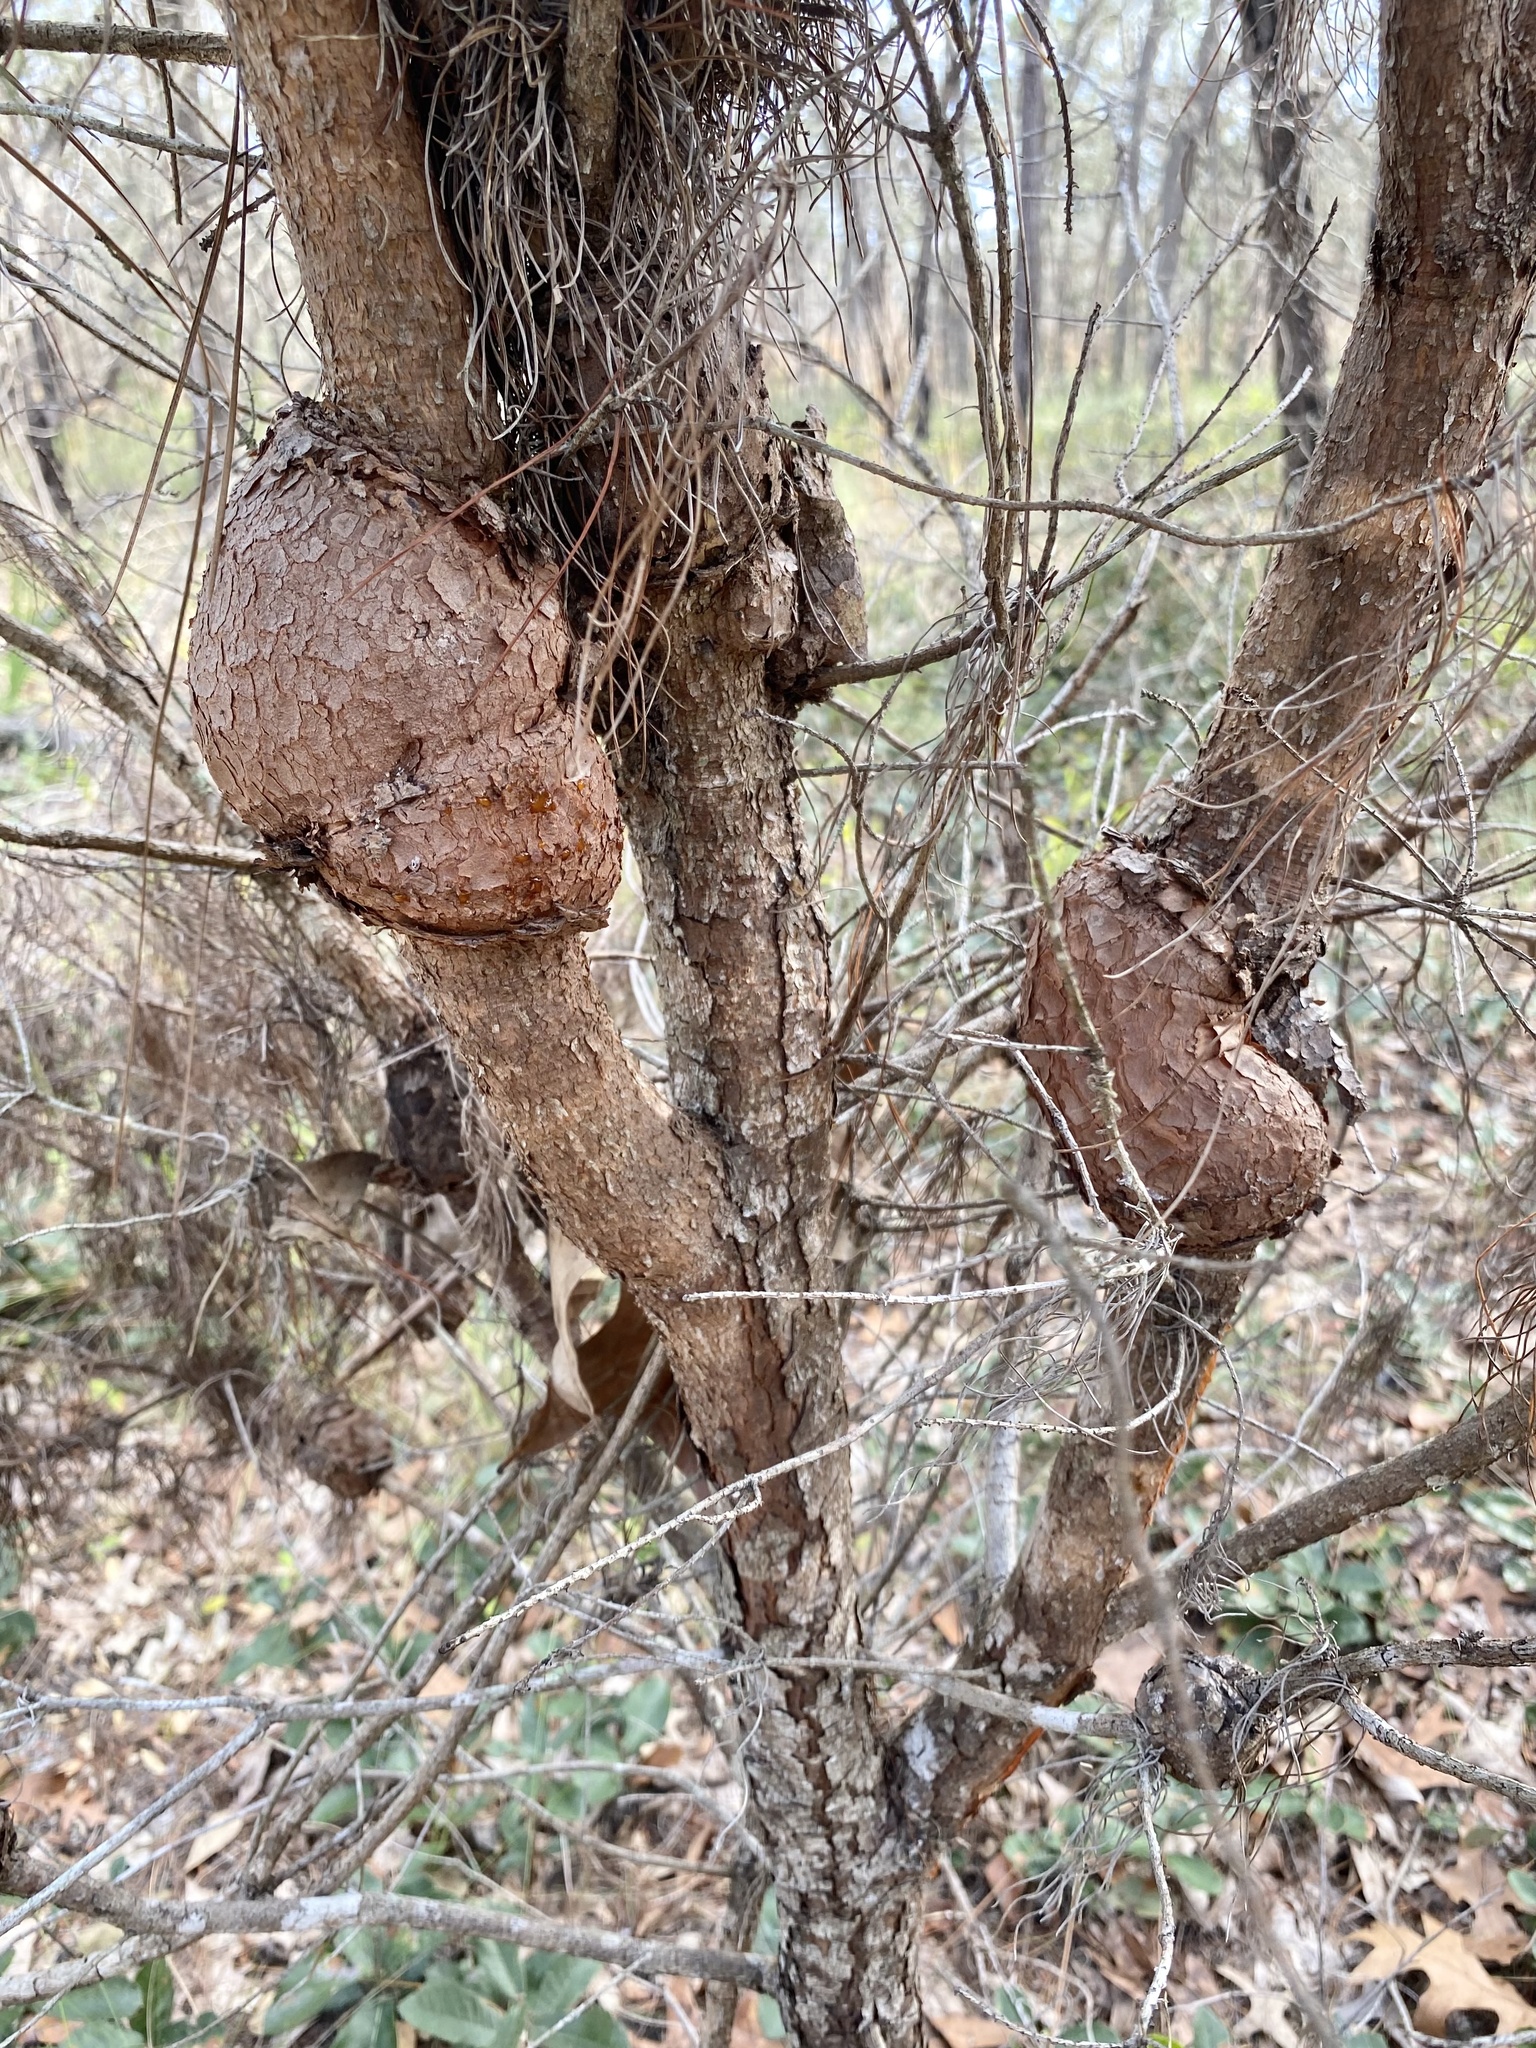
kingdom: Fungi
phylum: Basidiomycota
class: Pucciniomycetes
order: Pucciniales
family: Cronartiaceae
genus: Cronartium
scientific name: Cronartium quercuum
